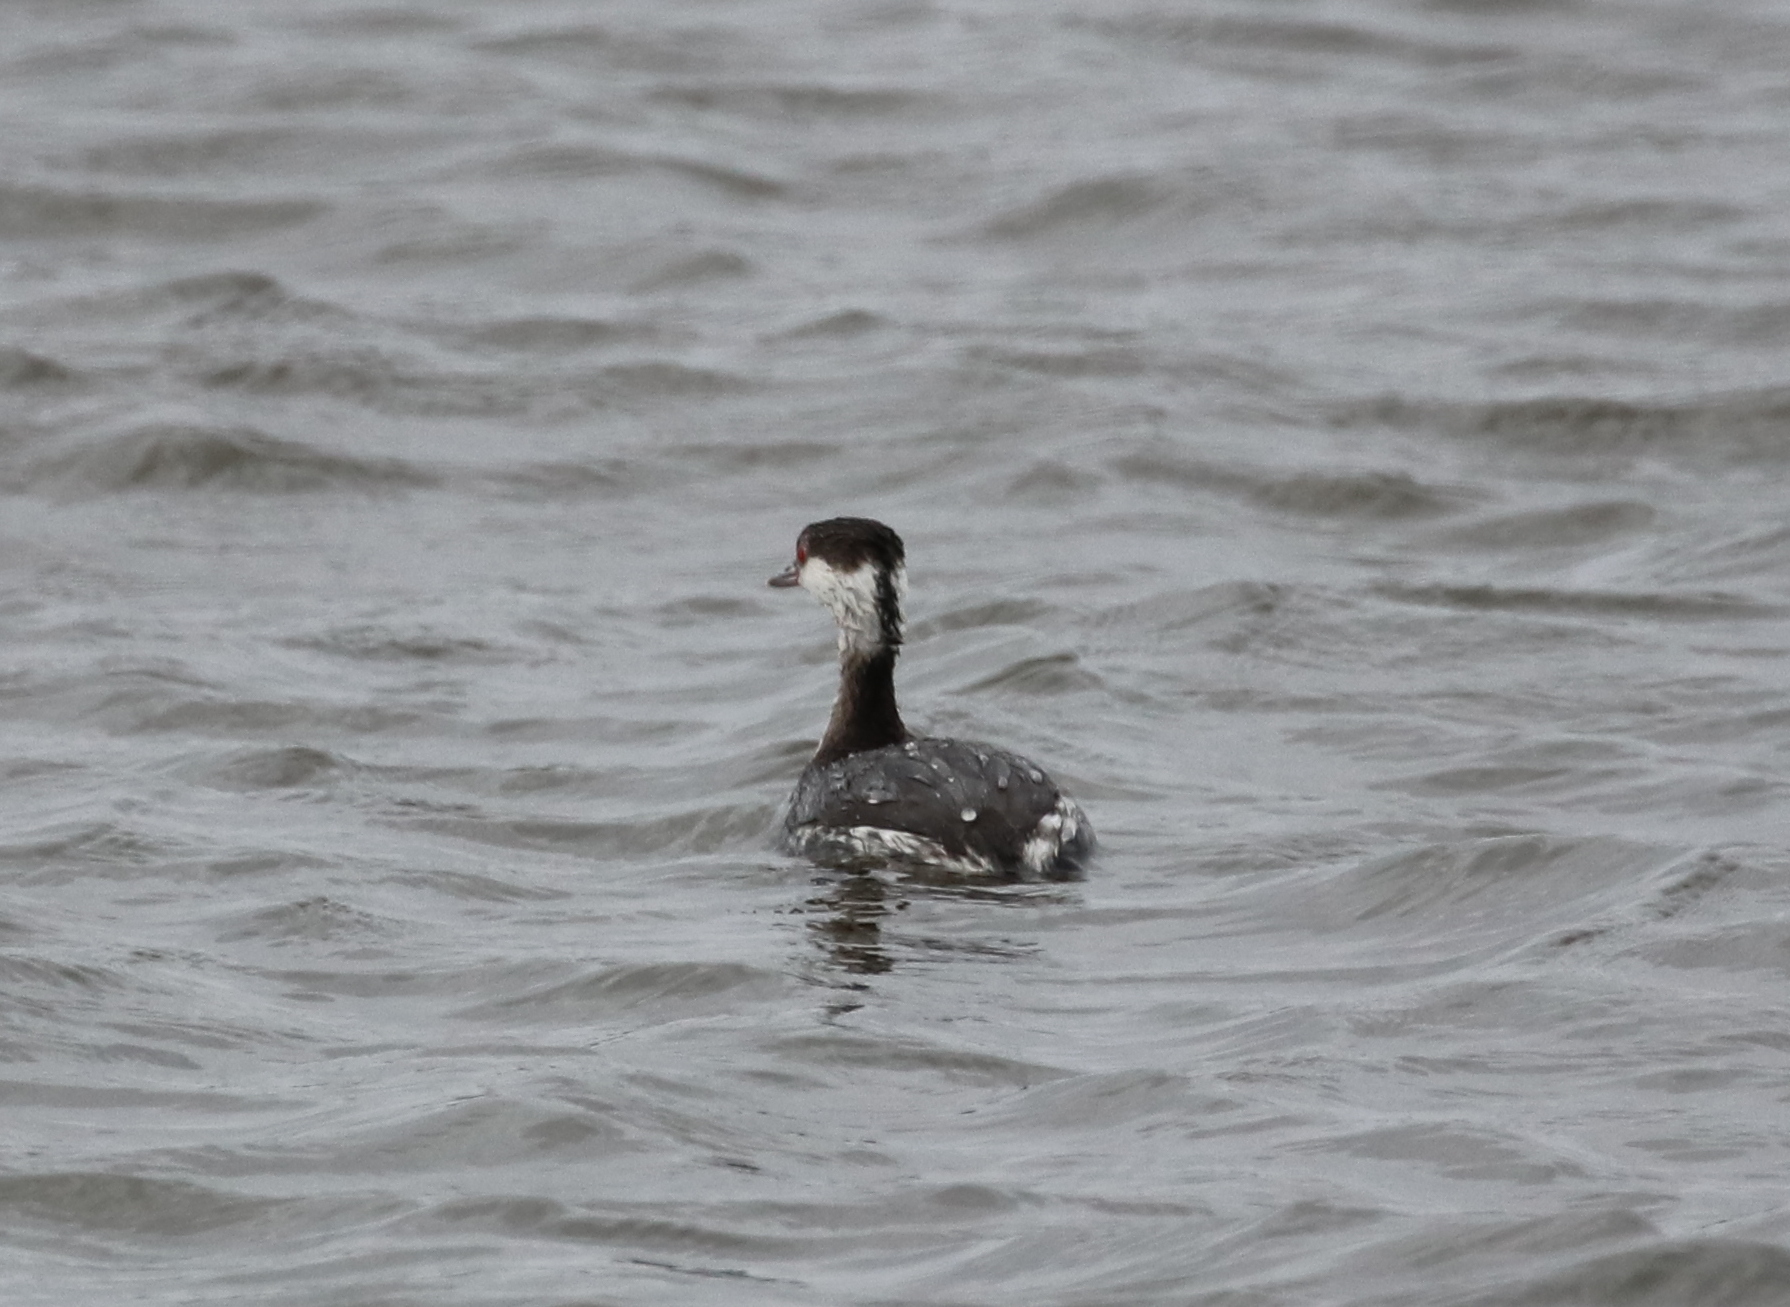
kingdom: Animalia
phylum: Chordata
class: Aves
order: Podicipediformes
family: Podicipedidae
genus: Podiceps
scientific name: Podiceps auritus
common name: Horned grebe
